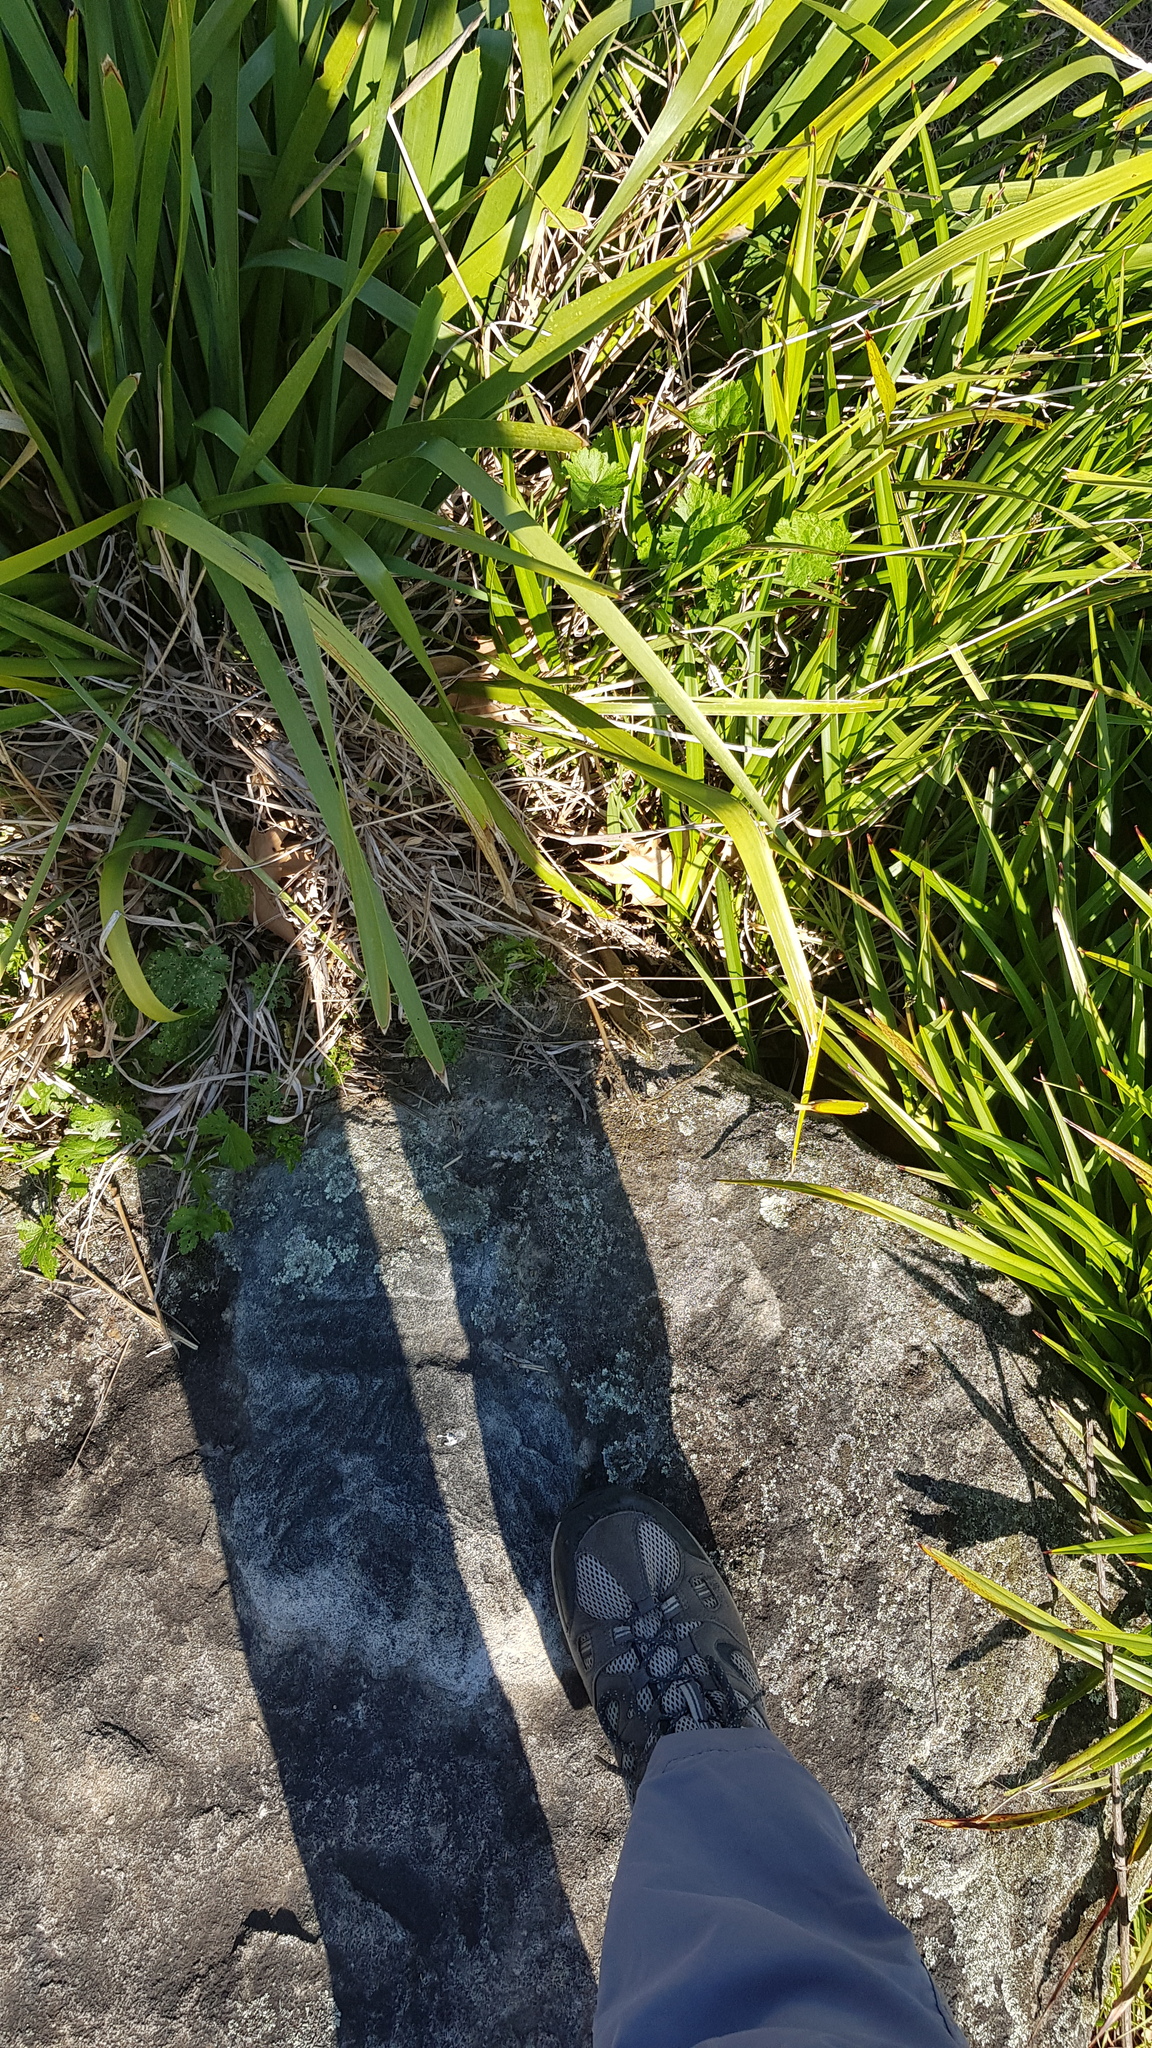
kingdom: Animalia
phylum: Chordata
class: Squamata
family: Scincidae
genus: Eulamprus
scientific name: Eulamprus quoyii
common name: Eastern water skink
